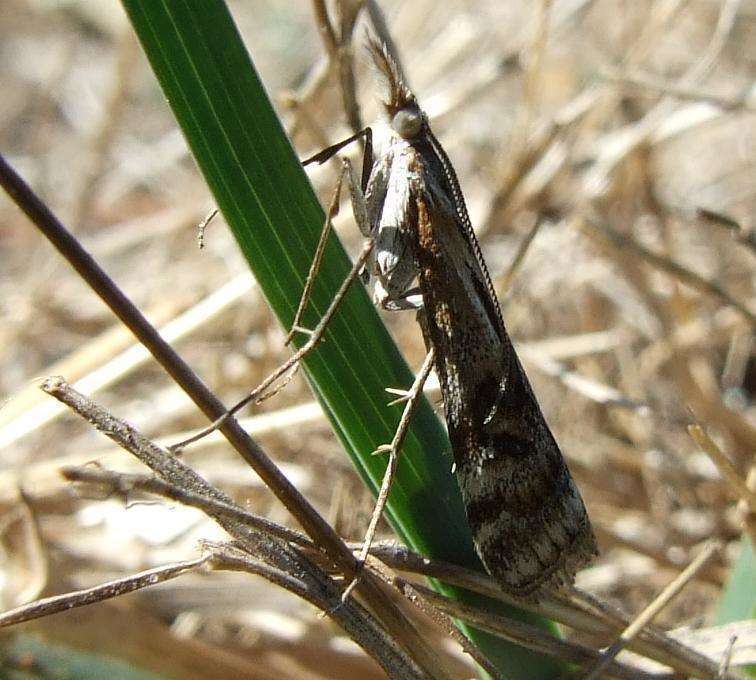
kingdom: Animalia
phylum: Arthropoda
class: Insecta
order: Lepidoptera
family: Crambidae
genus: Hednota
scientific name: Hednota pedionoma
